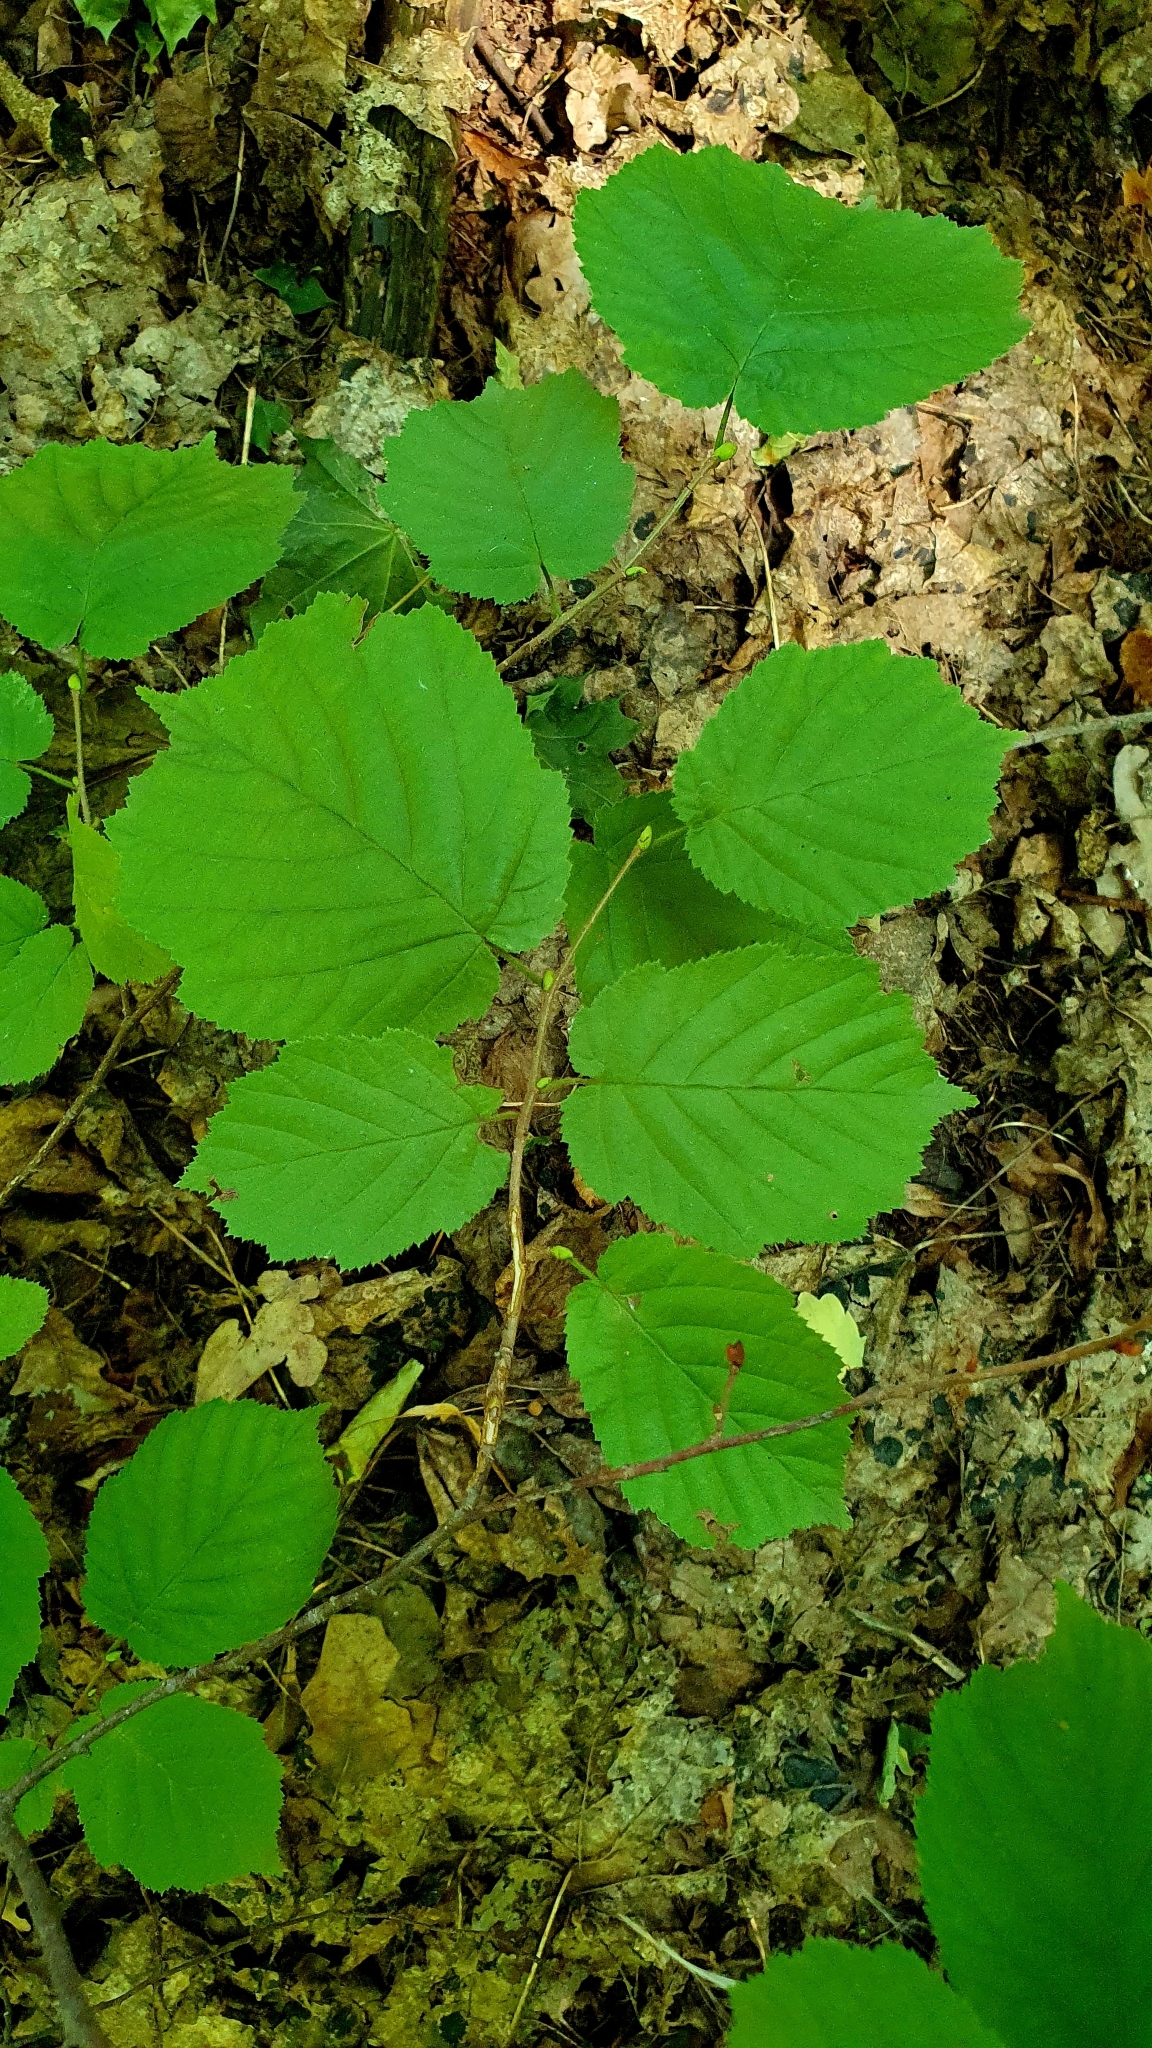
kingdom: Plantae
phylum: Tracheophyta
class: Magnoliopsida
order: Fagales
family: Betulaceae
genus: Corylus
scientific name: Corylus avellana
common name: European hazel
